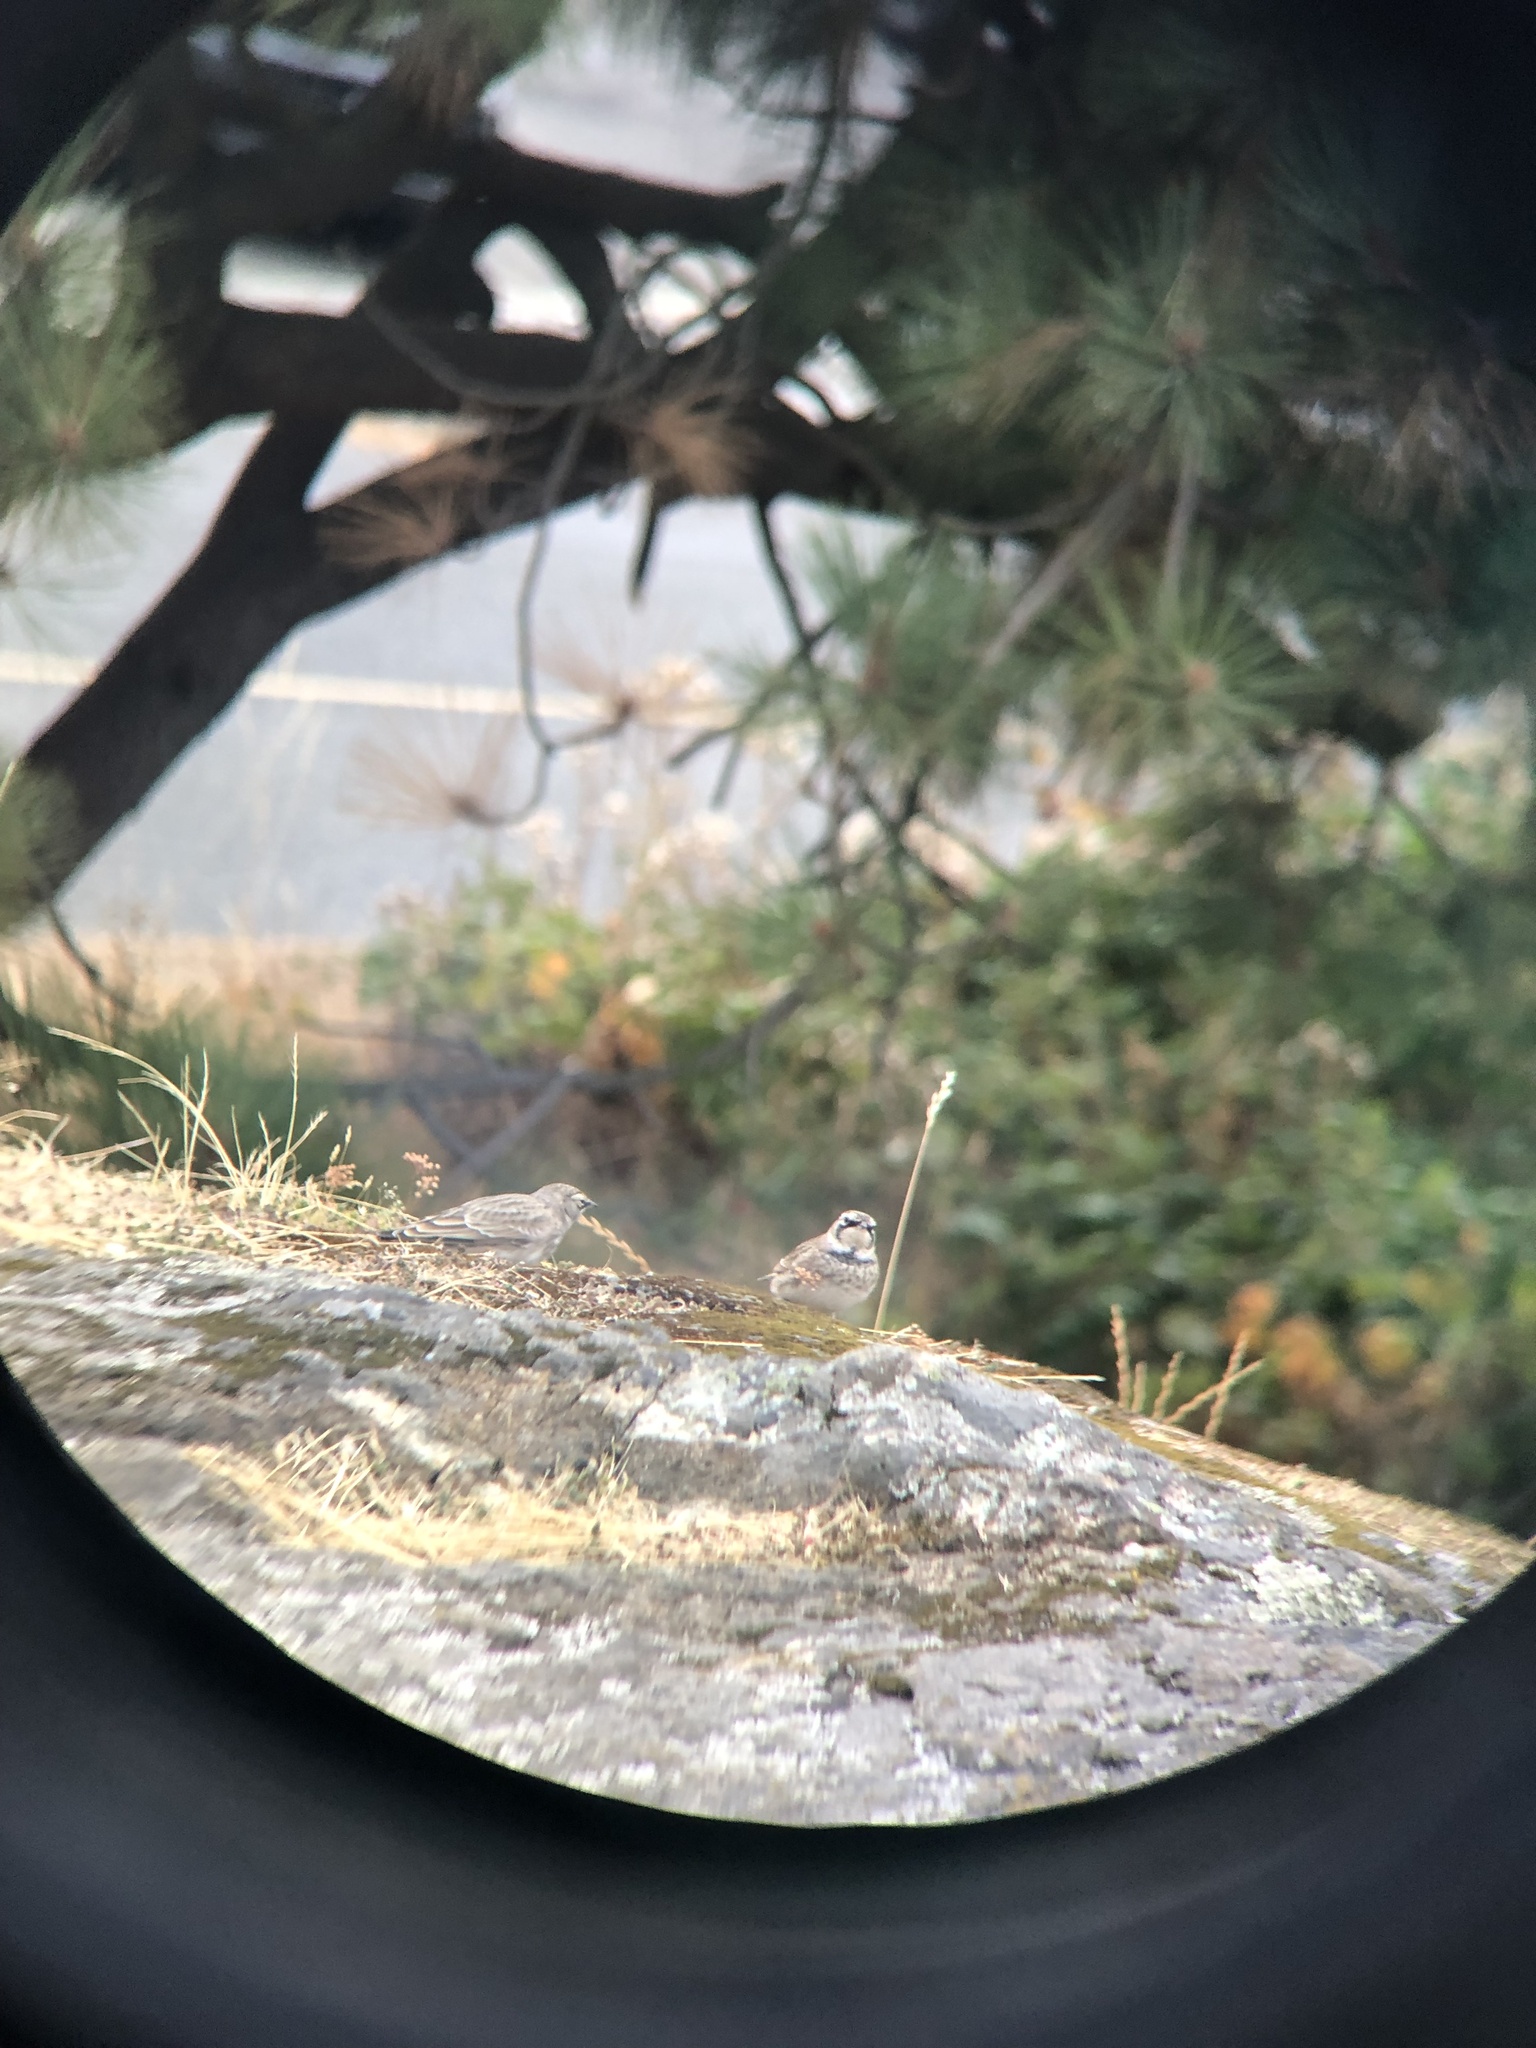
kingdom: Animalia
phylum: Chordata
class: Aves
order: Passeriformes
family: Alaudidae
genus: Eremophila
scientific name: Eremophila alpestris
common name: Horned lark
